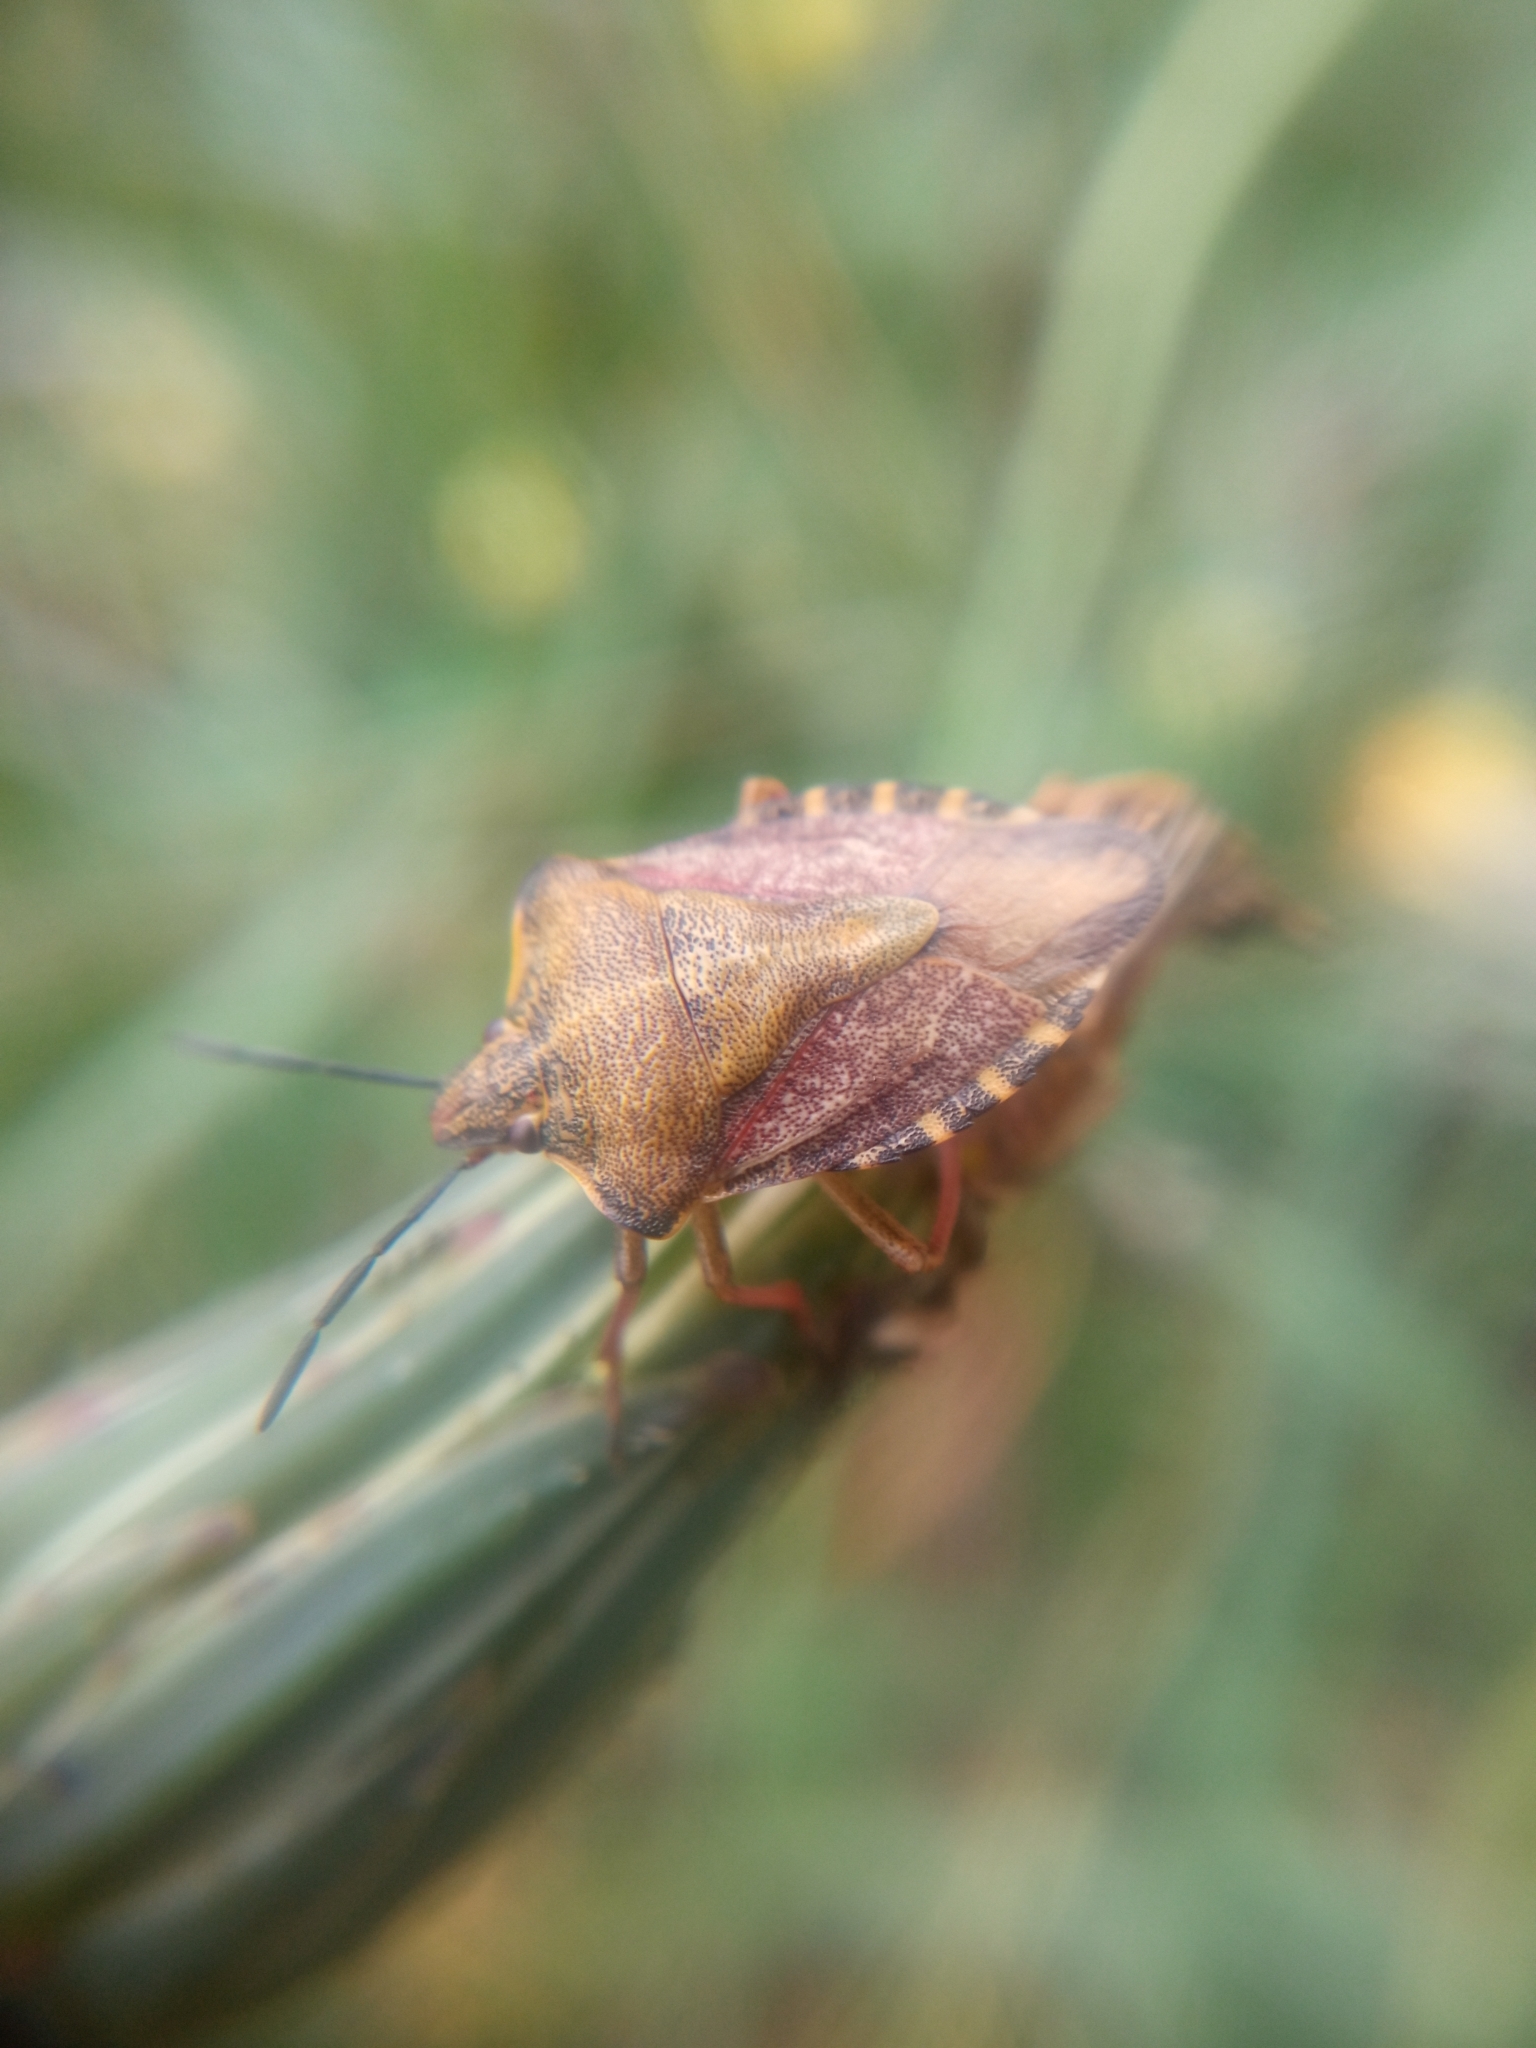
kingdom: Animalia
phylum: Arthropoda
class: Insecta
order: Hemiptera
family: Pentatomidae
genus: Carpocoris
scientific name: Carpocoris purpureipennis
